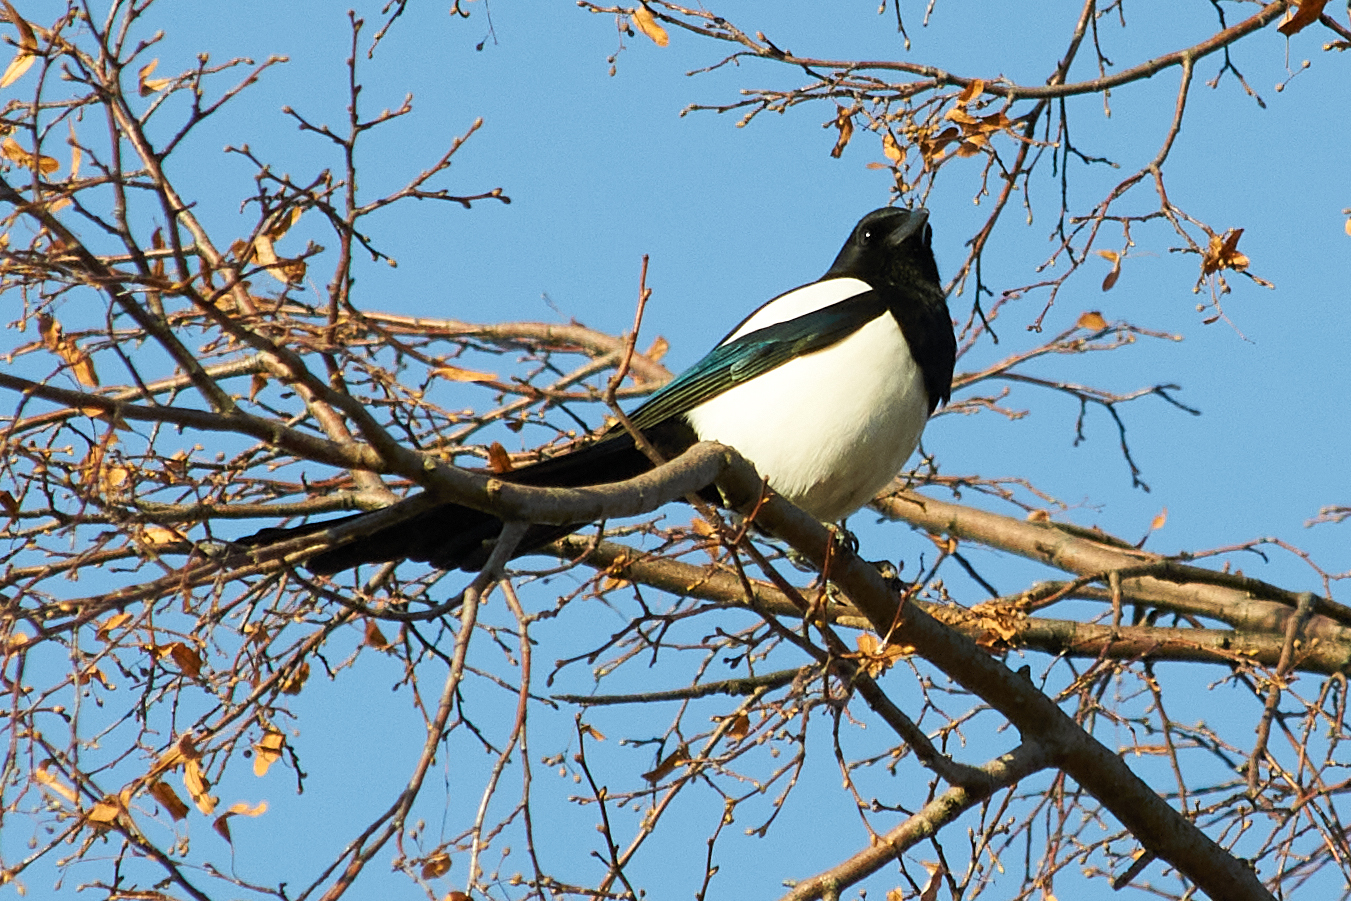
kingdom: Animalia
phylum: Chordata
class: Aves
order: Passeriformes
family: Corvidae
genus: Pica
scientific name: Pica pica
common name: Eurasian magpie
